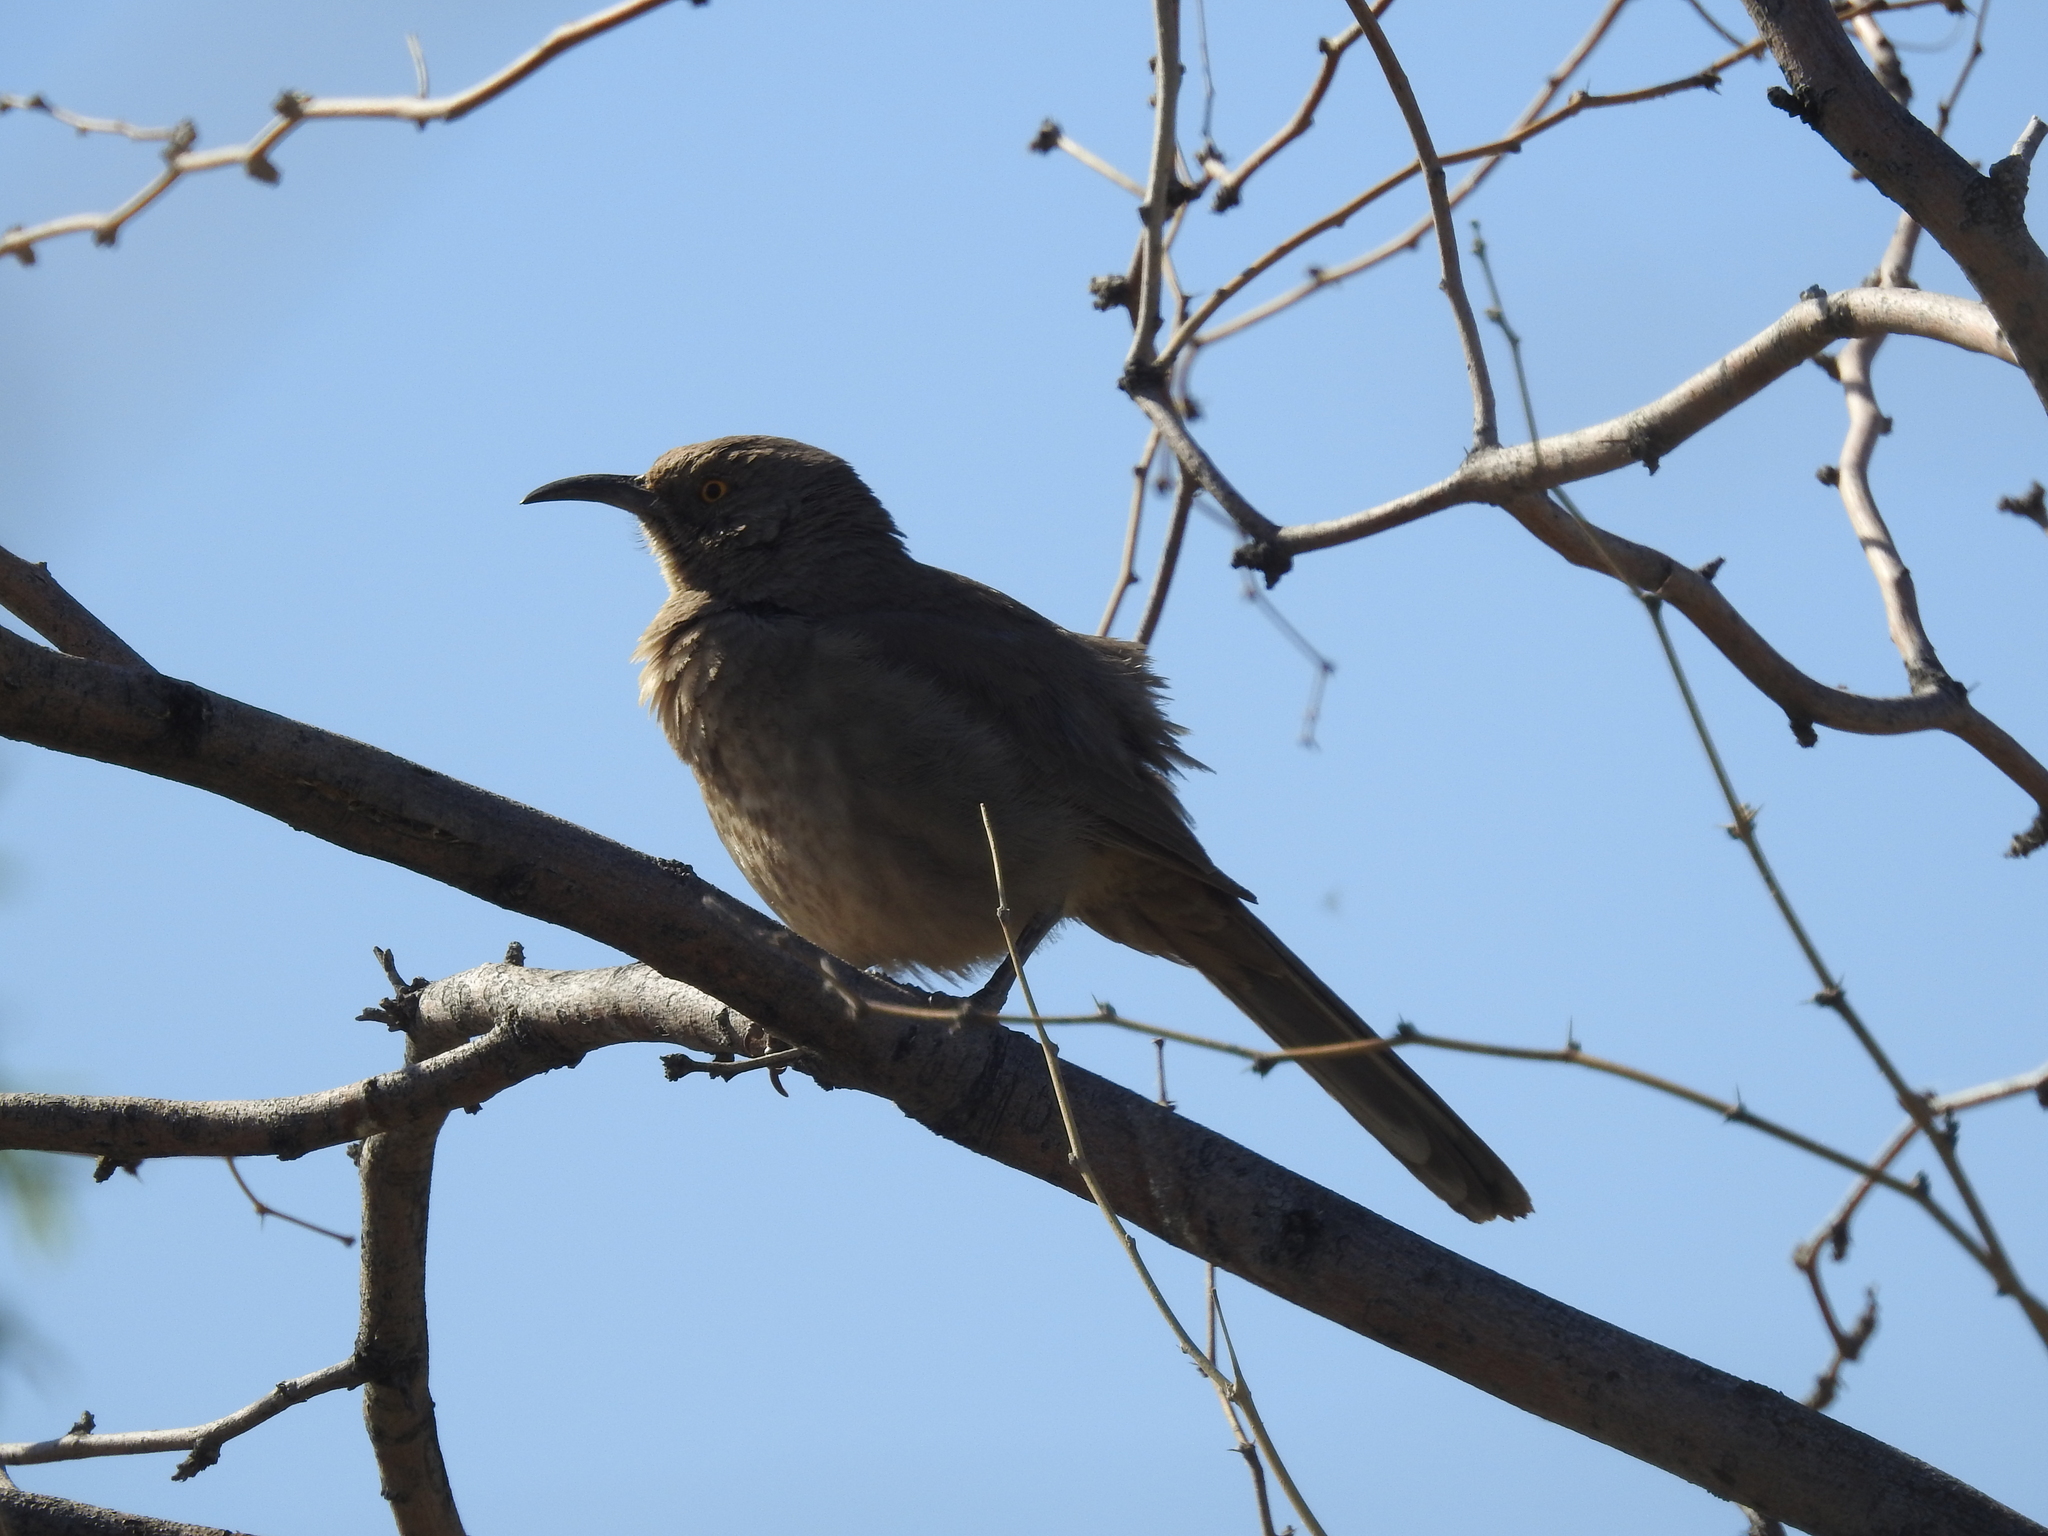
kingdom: Animalia
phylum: Chordata
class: Aves
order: Passeriformes
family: Mimidae
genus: Toxostoma
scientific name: Toxostoma curvirostre
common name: Curve-billed thrasher
